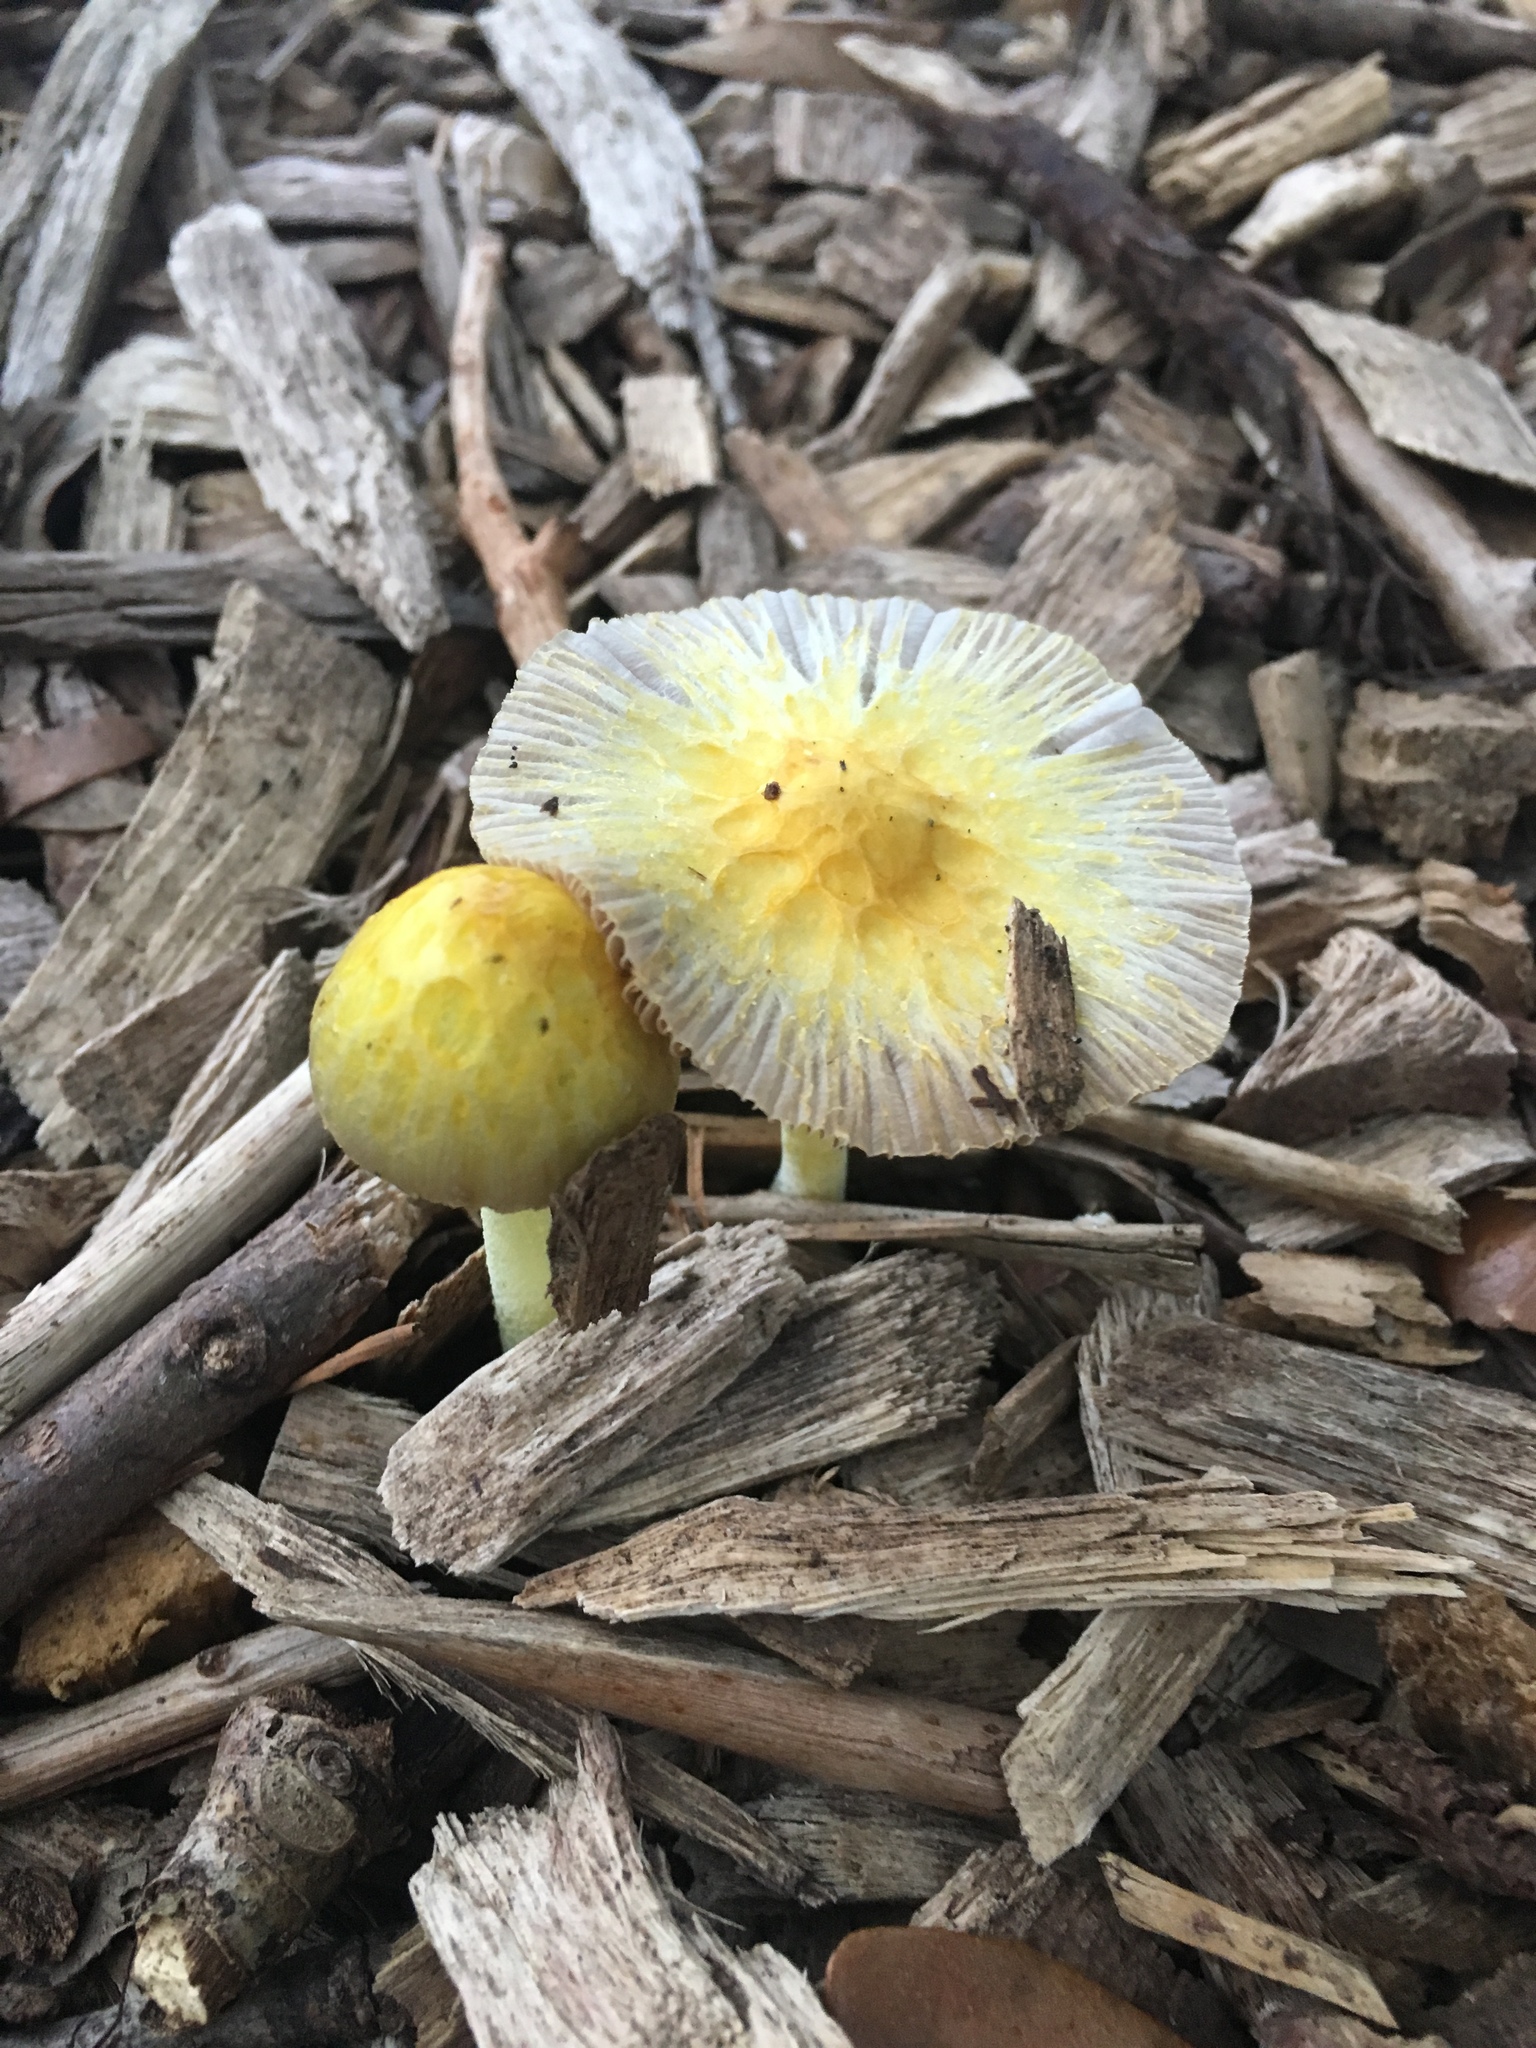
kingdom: Fungi
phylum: Basidiomycota
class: Agaricomycetes
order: Agaricales
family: Bolbitiaceae
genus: Bolbitius
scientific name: Bolbitius titubans
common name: Yellow fieldcap
